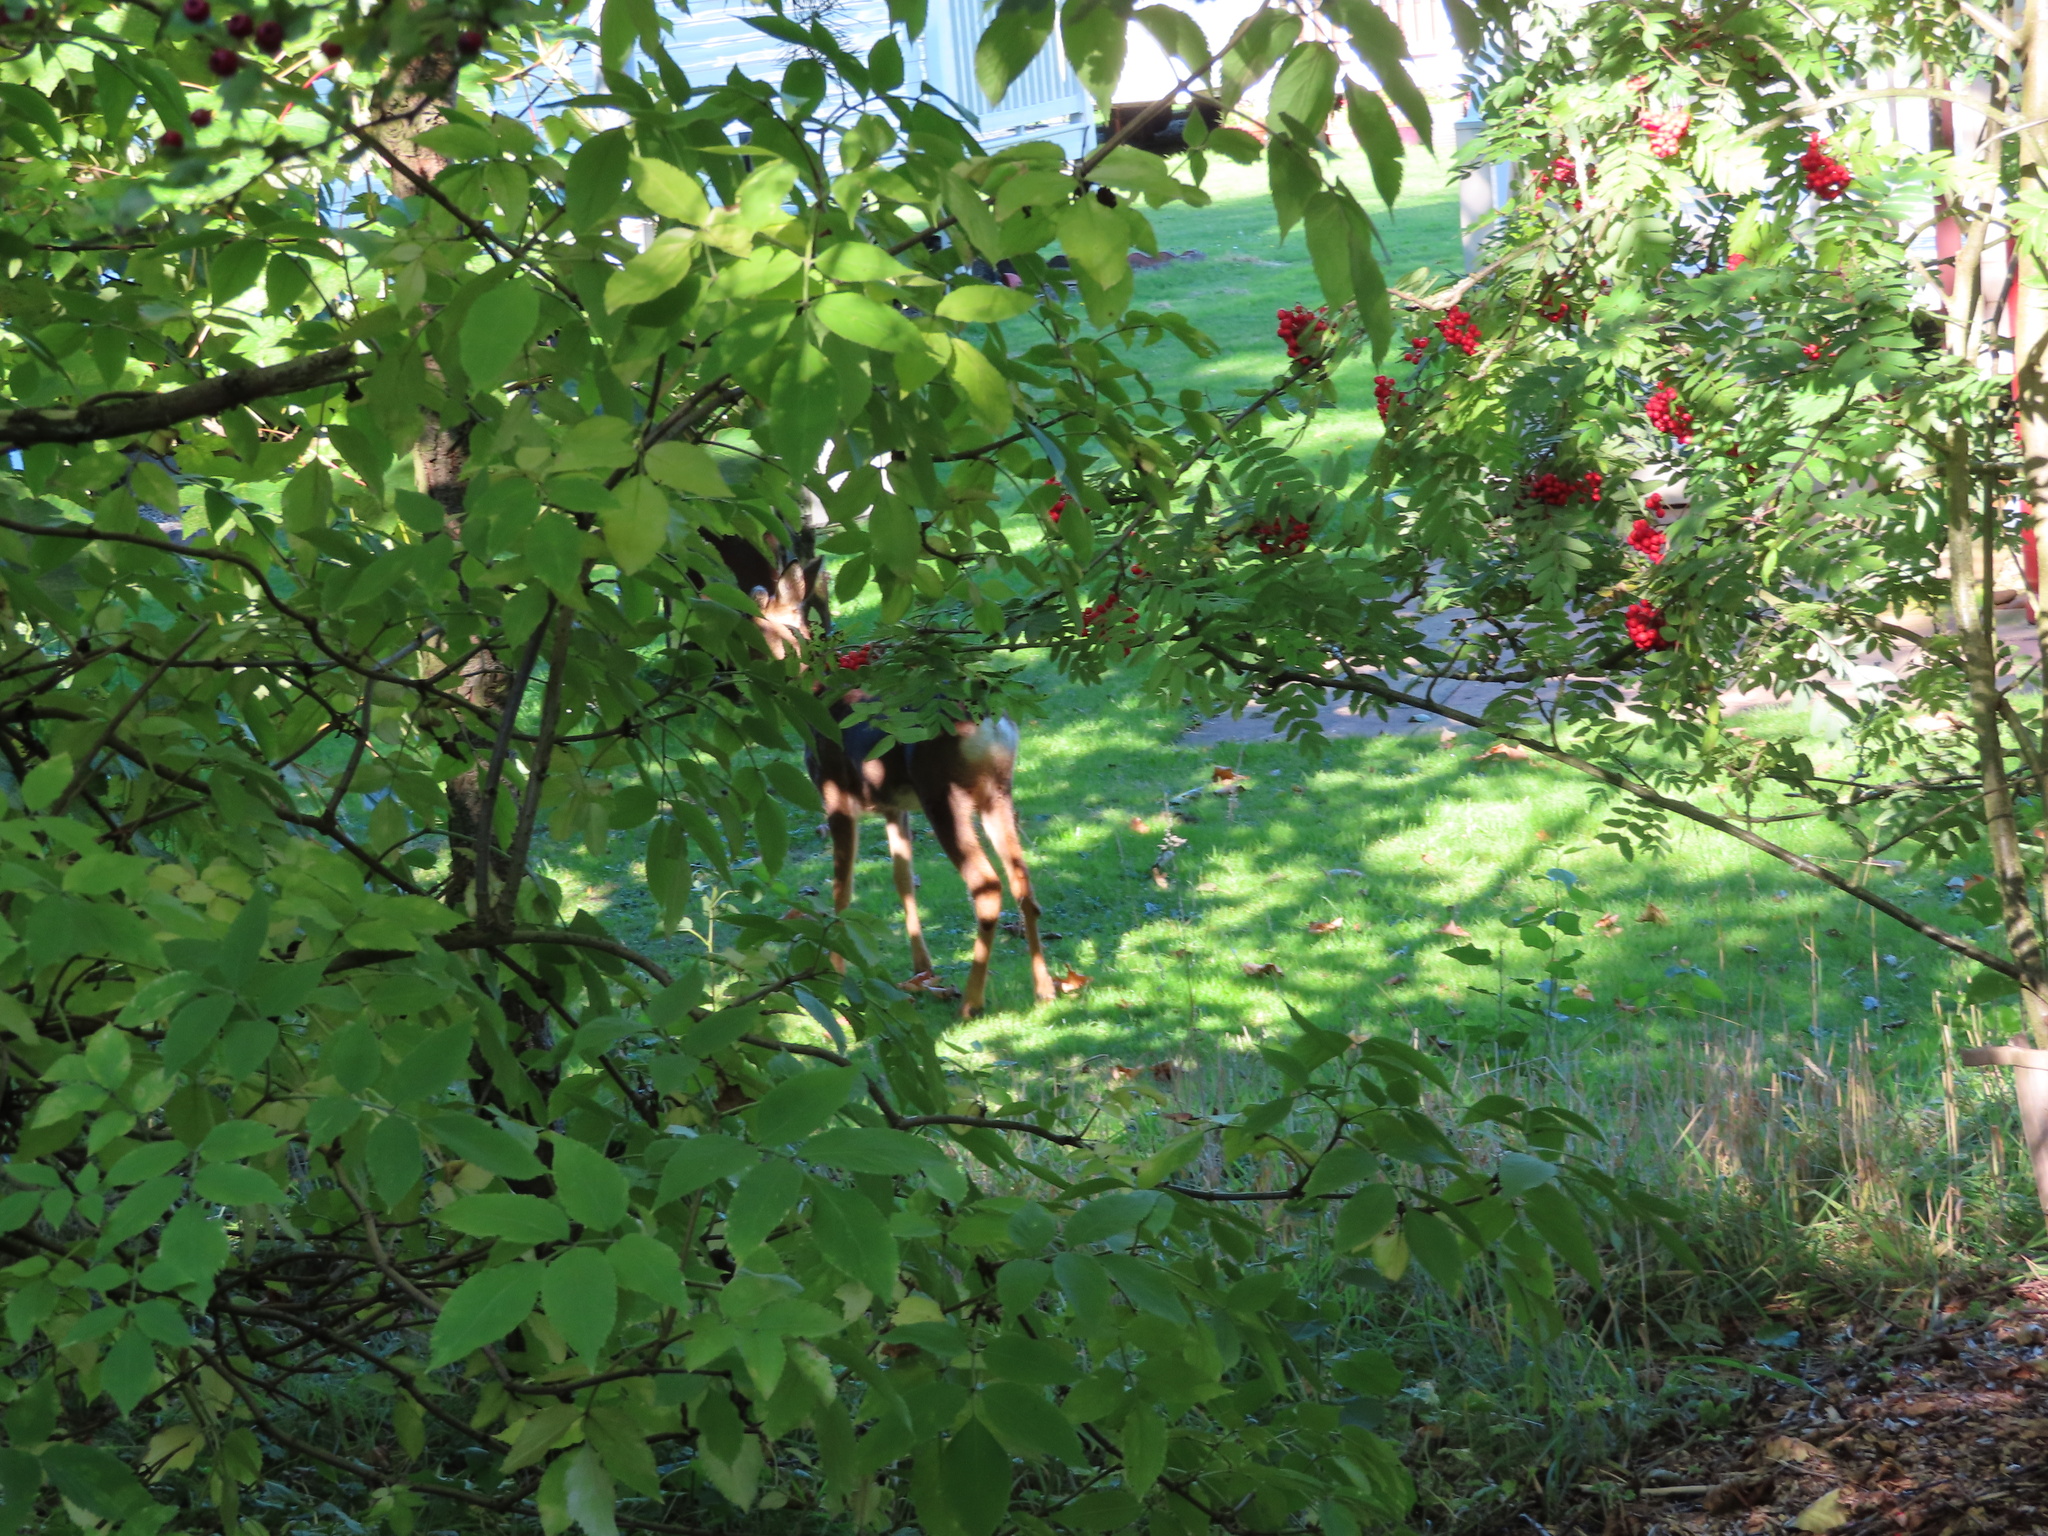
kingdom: Animalia
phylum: Chordata
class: Mammalia
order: Artiodactyla
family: Cervidae
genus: Capreolus
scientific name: Capreolus capreolus
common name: Western roe deer
